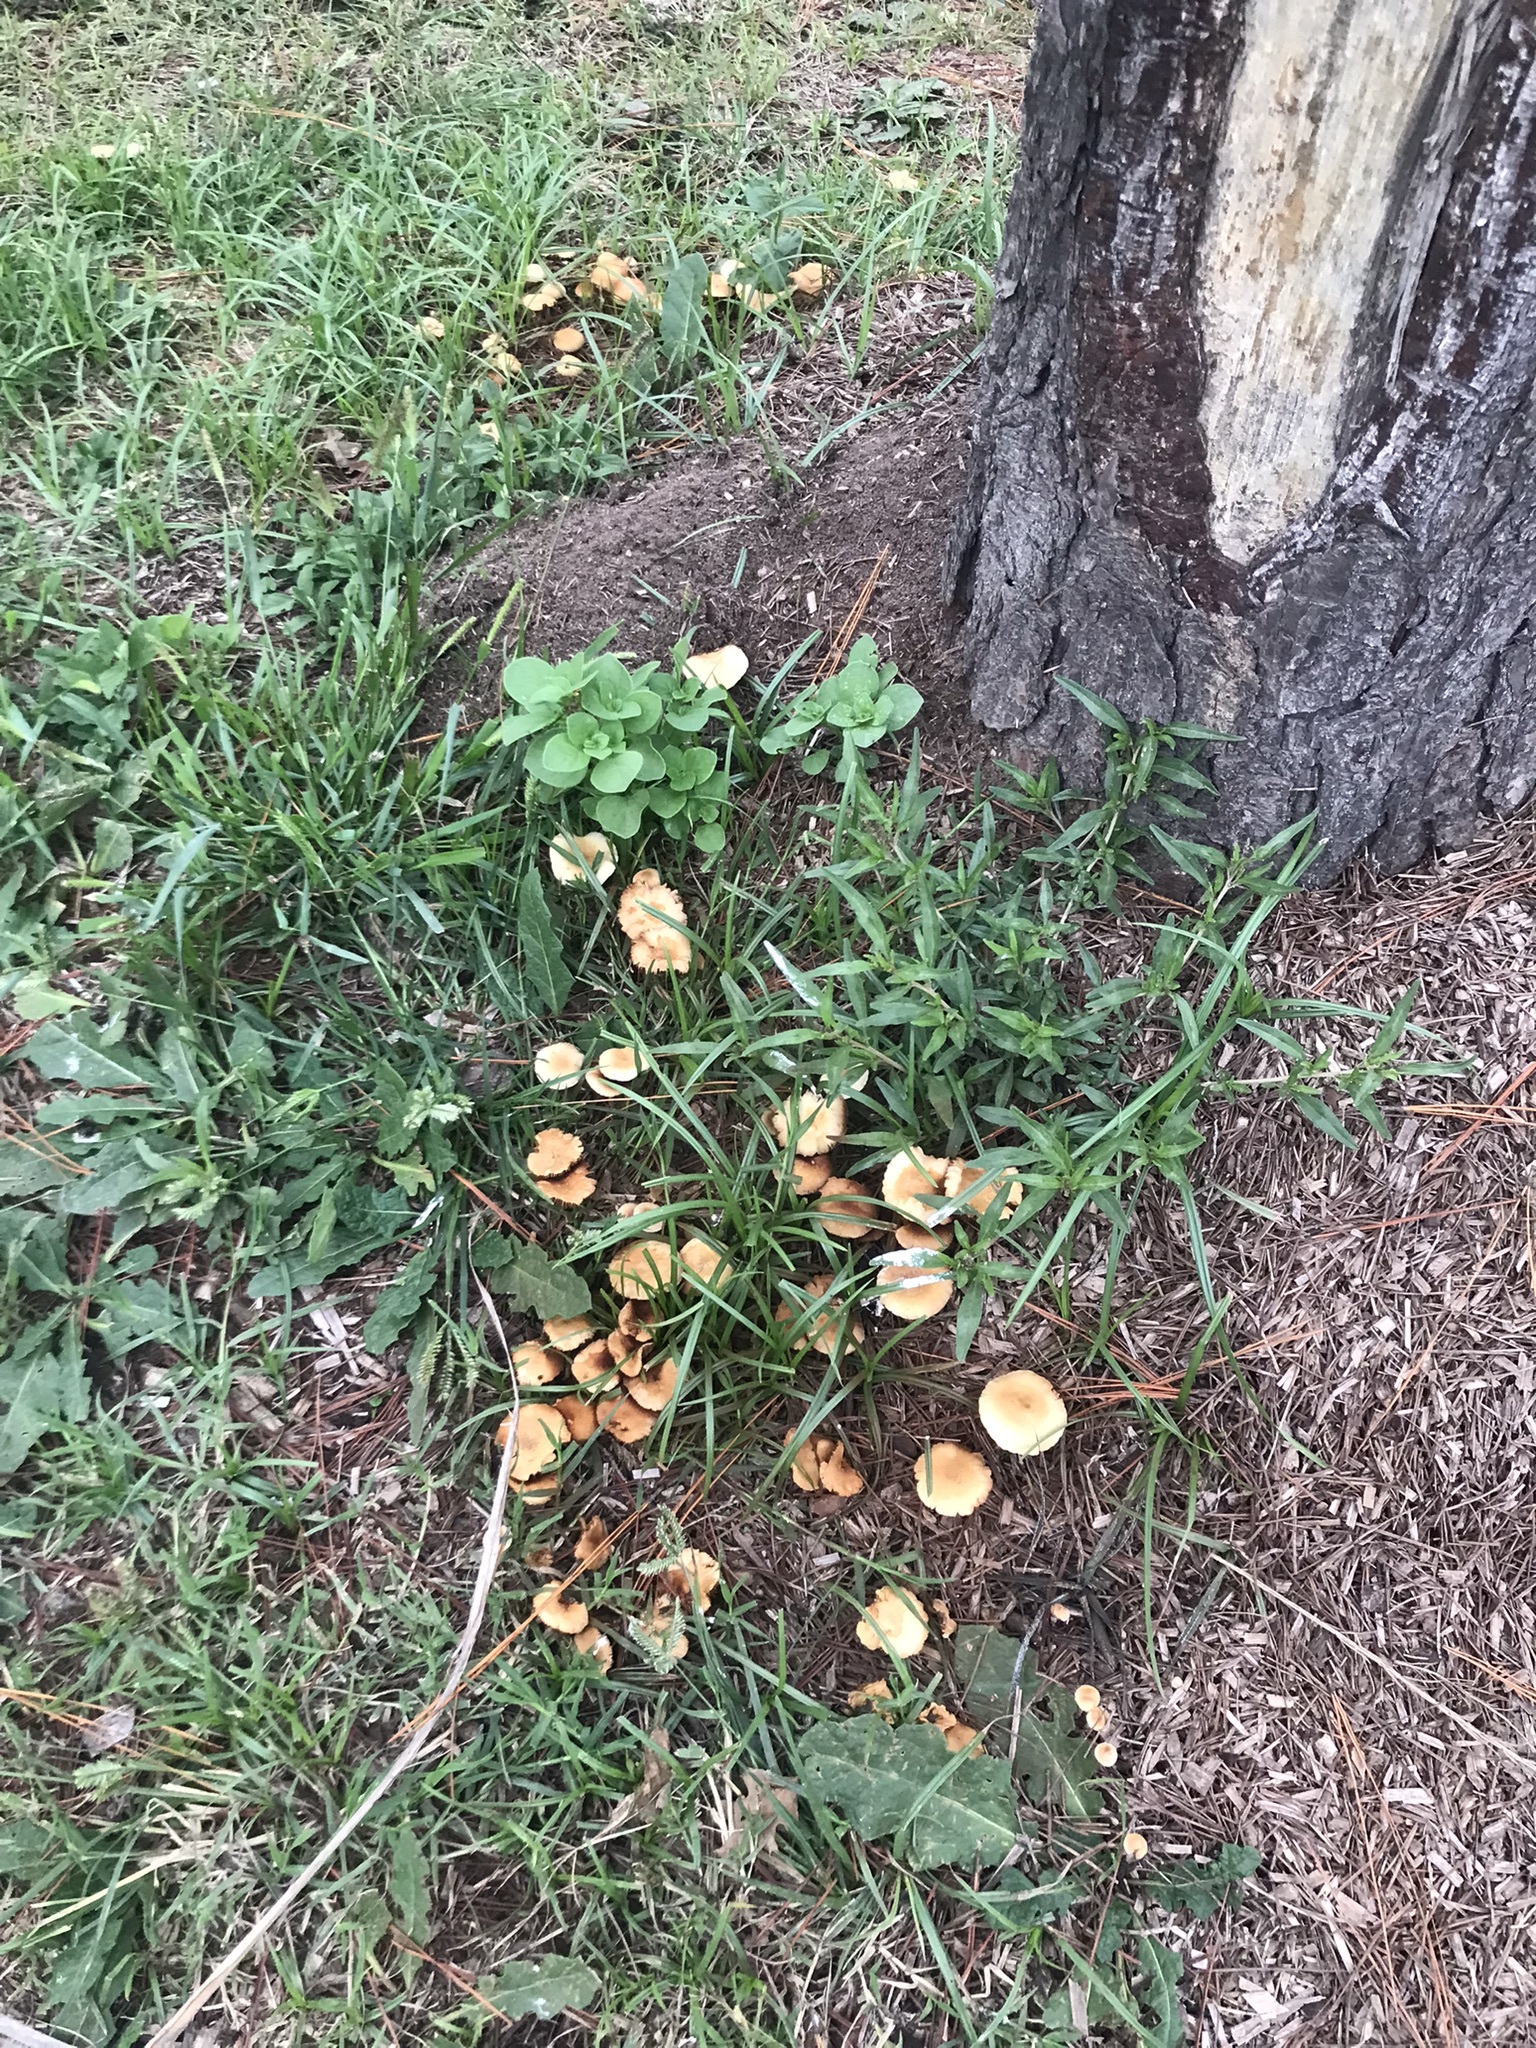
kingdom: Fungi
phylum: Basidiomycota
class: Agaricomycetes
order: Agaricales
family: Strophariaceae
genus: Agrocybe
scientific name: Agrocybe pediades
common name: Common fieldcap
